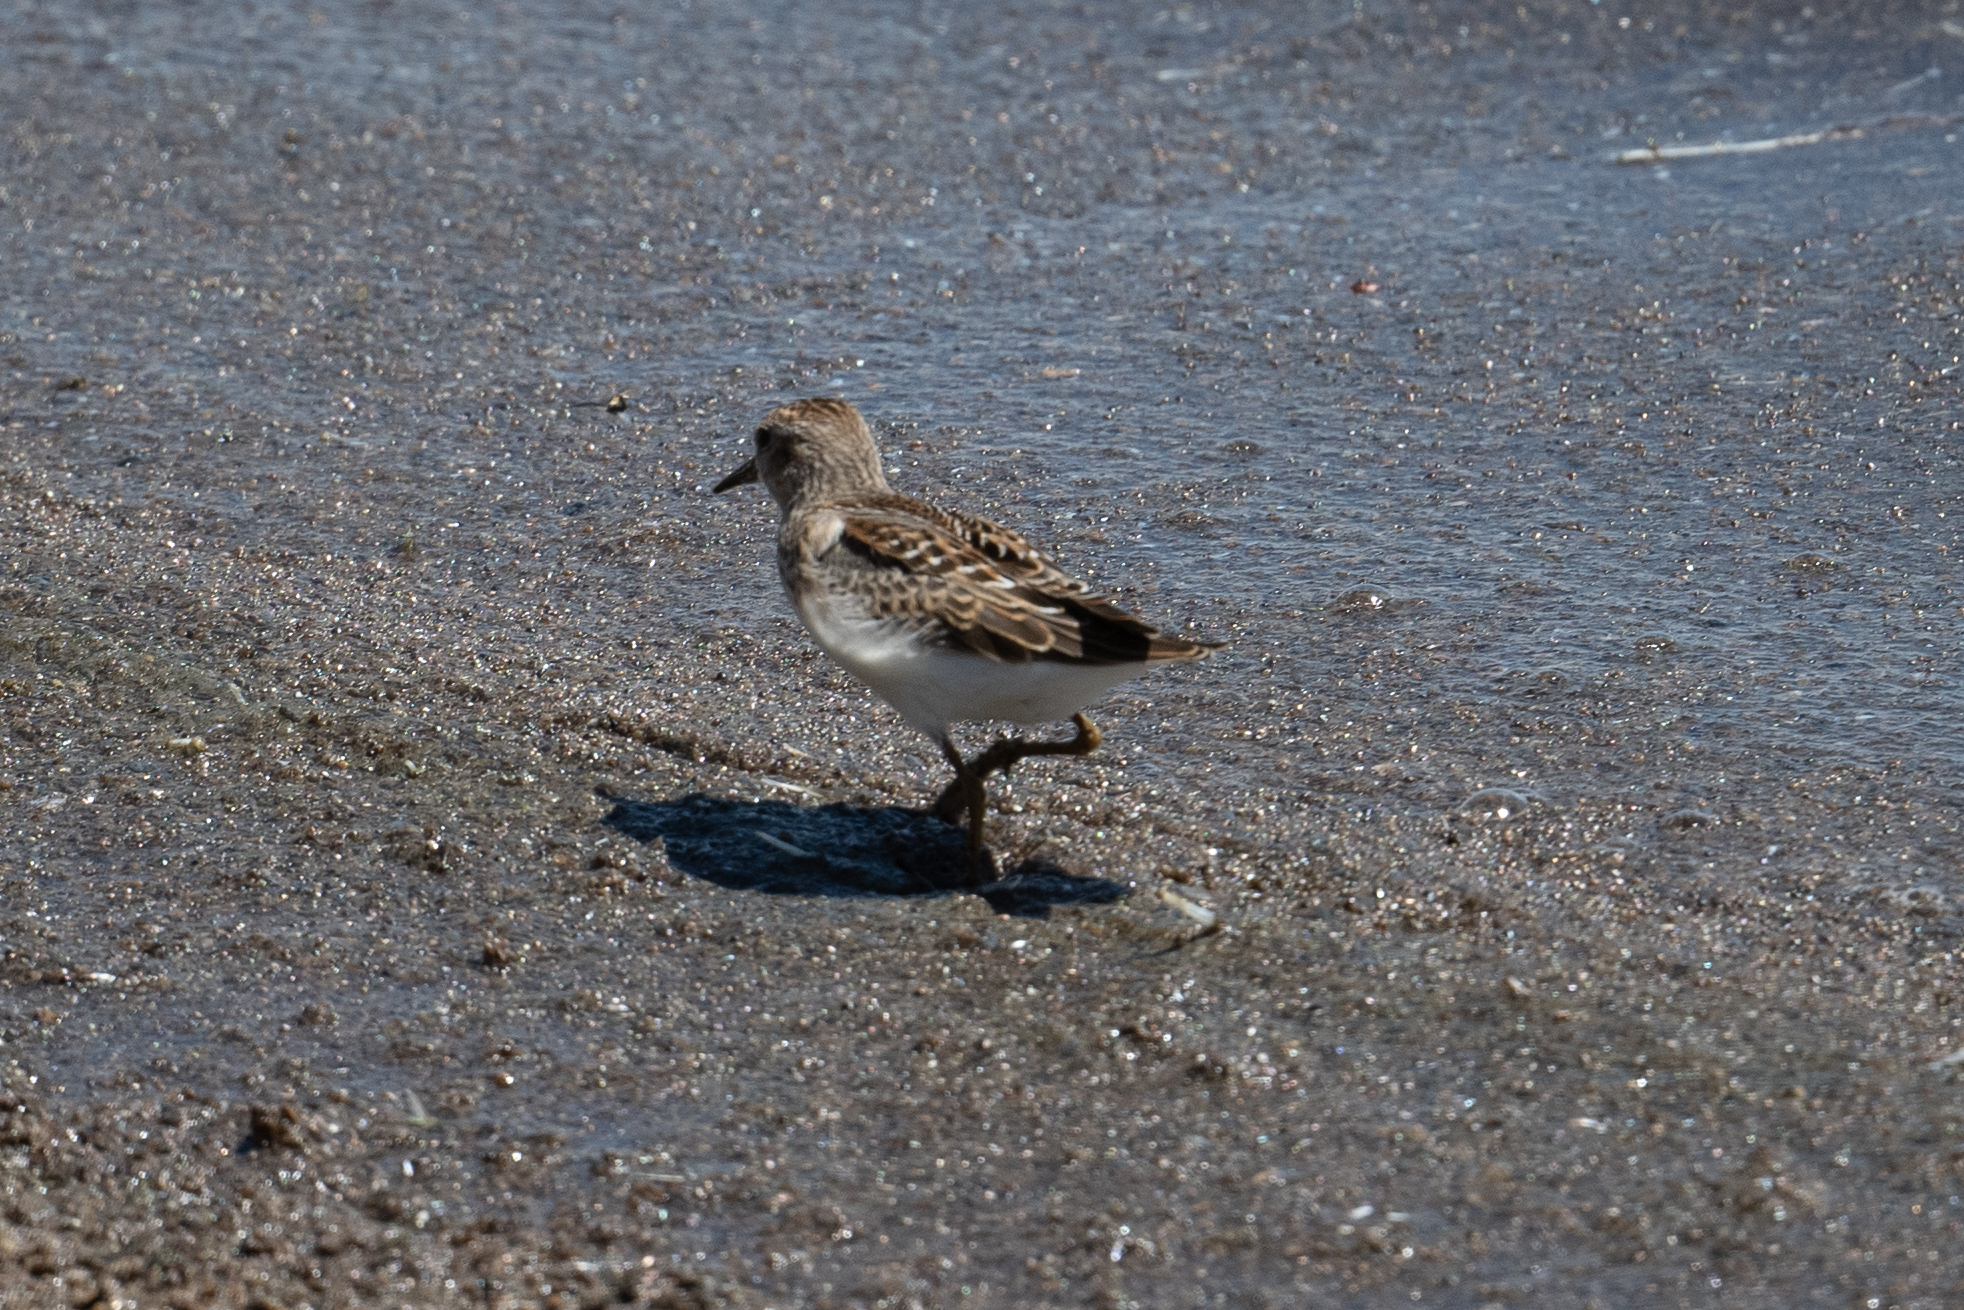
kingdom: Animalia
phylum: Chordata
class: Aves
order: Charadriiformes
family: Scolopacidae
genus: Calidris
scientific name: Calidris minutilla
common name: Least sandpiper
